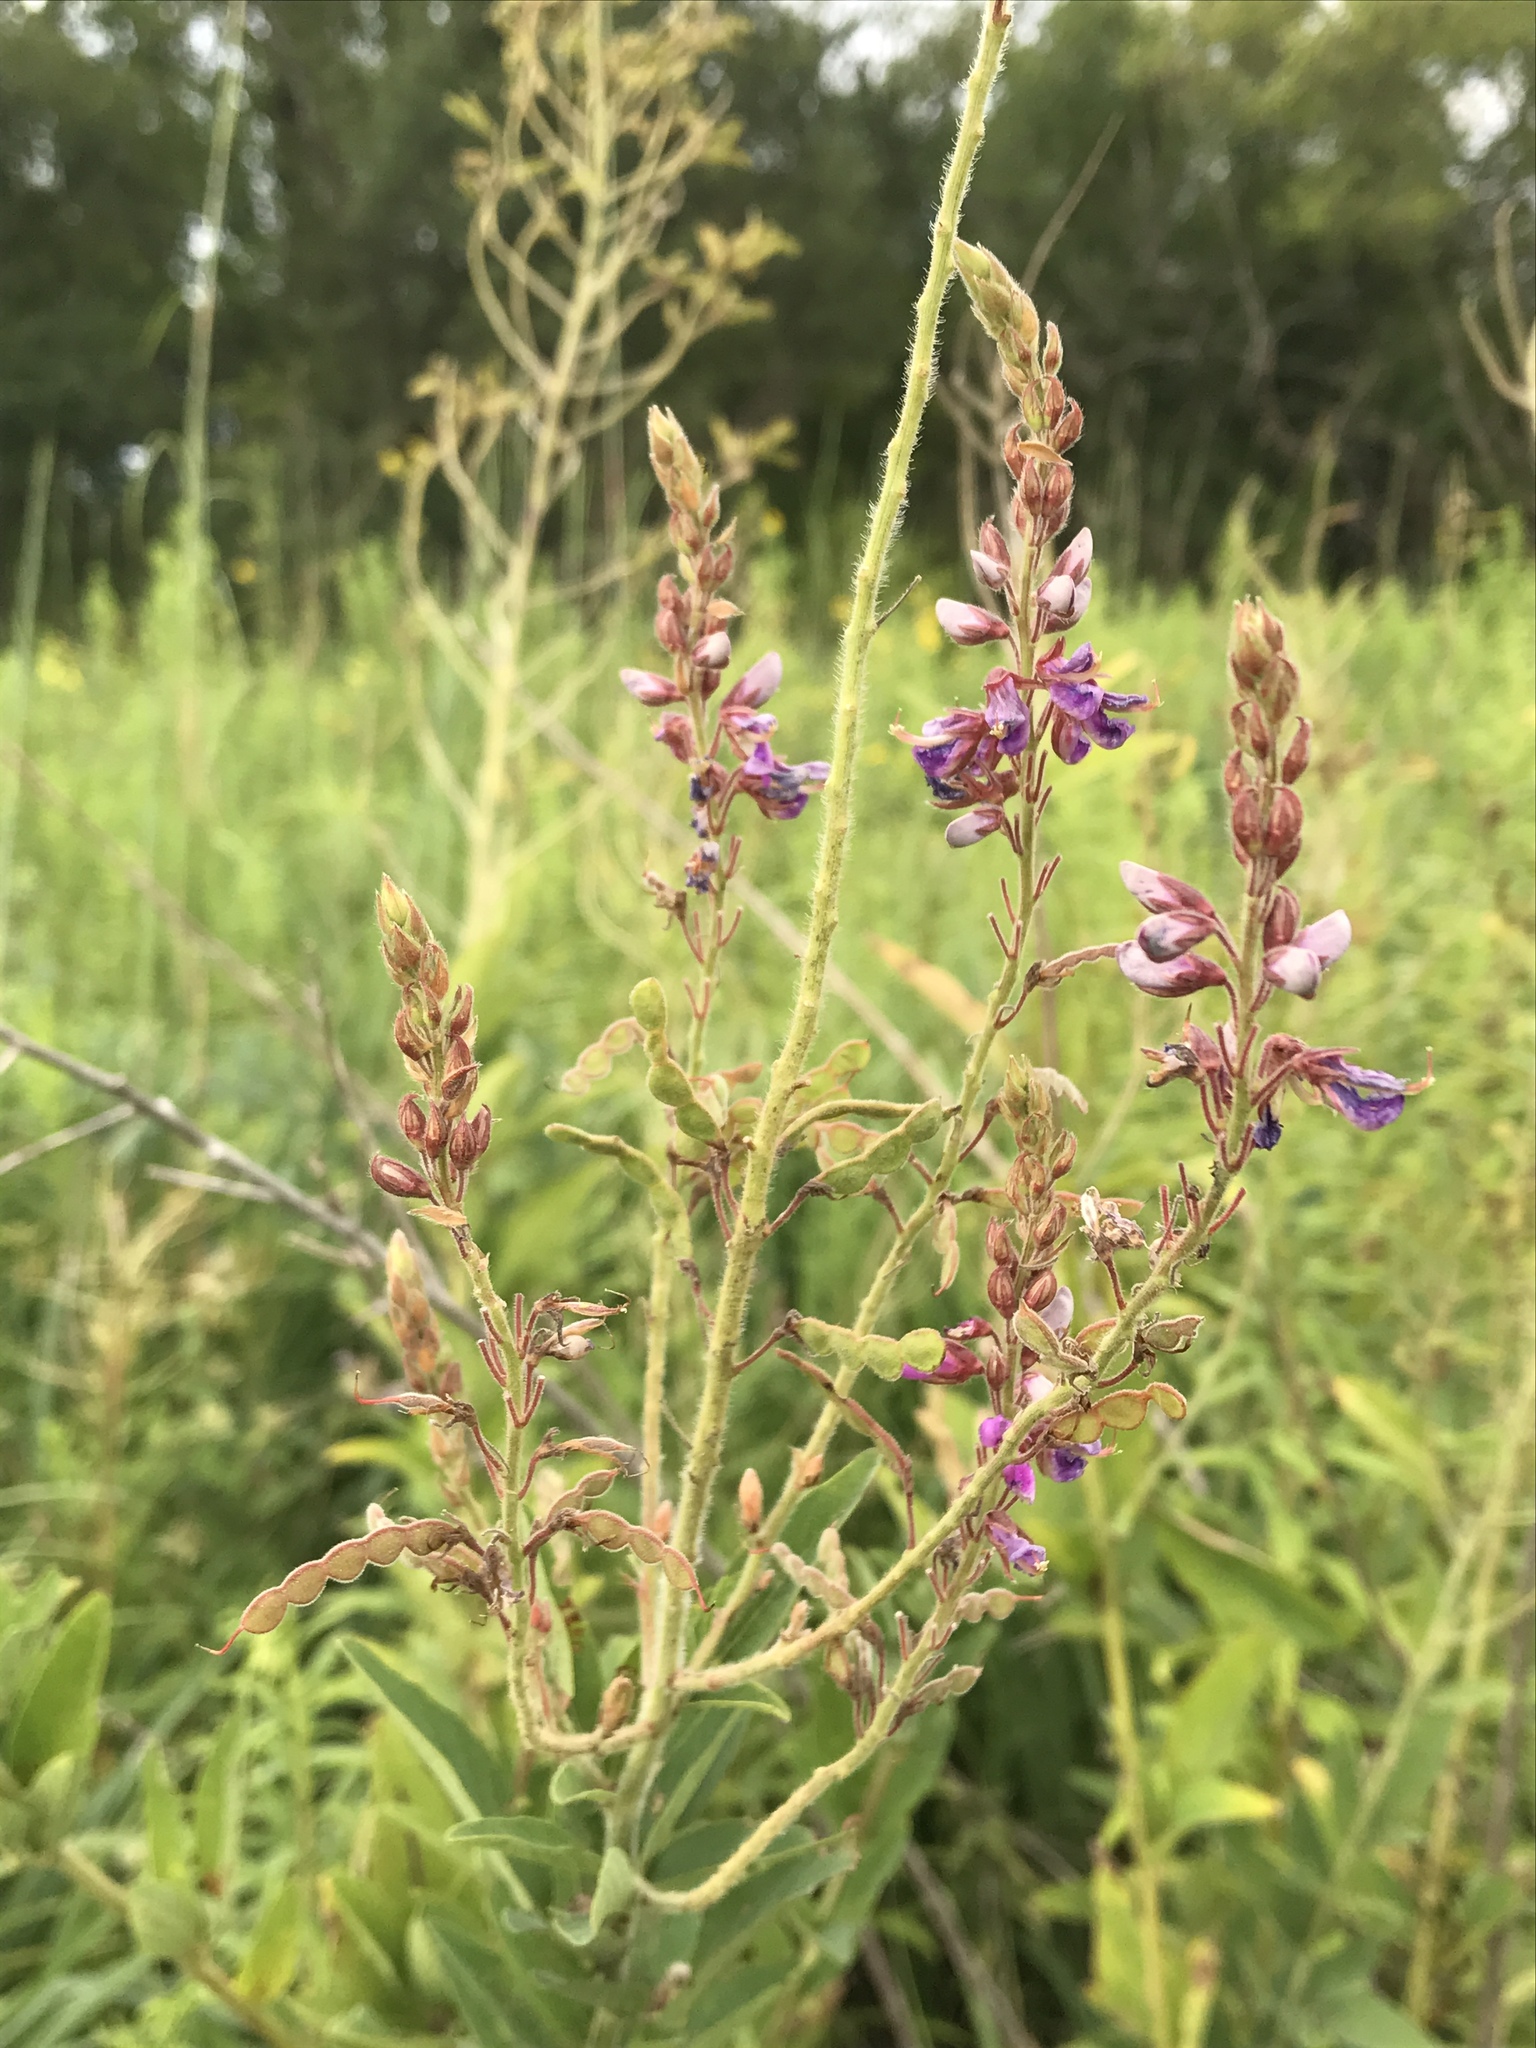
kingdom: Plantae
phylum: Tracheophyta
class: Magnoliopsida
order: Fabales
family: Fabaceae
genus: Desmodium
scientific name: Desmodium canadense
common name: Canada tick-trefoil
